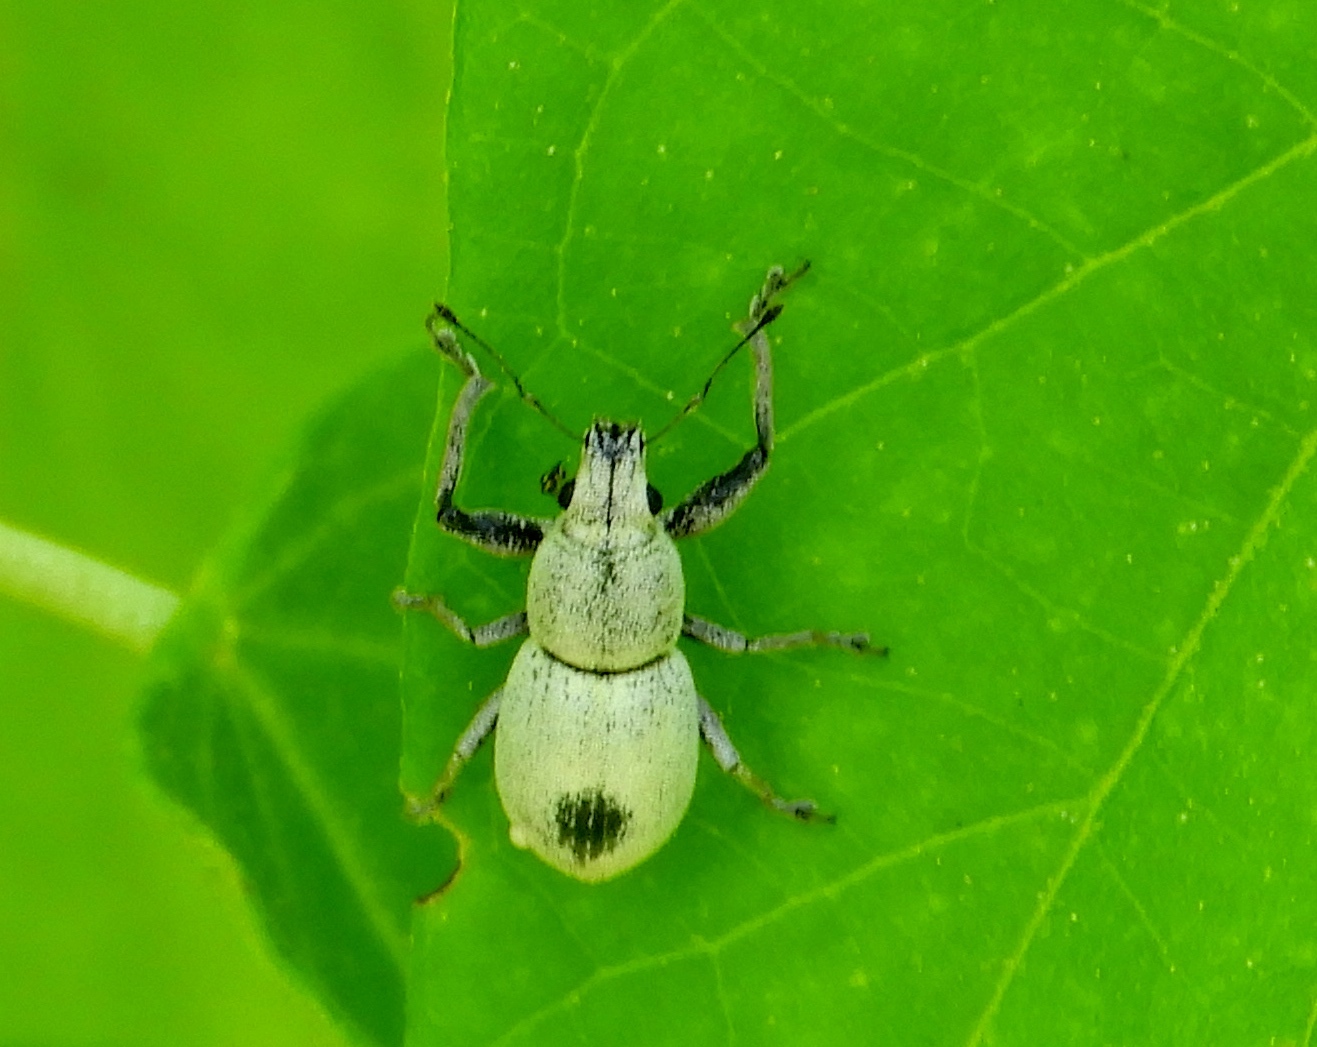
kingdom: Animalia
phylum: Arthropoda
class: Insecta
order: Coleoptera
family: Curculionidae
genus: Pantomorus
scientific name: Pantomorus
